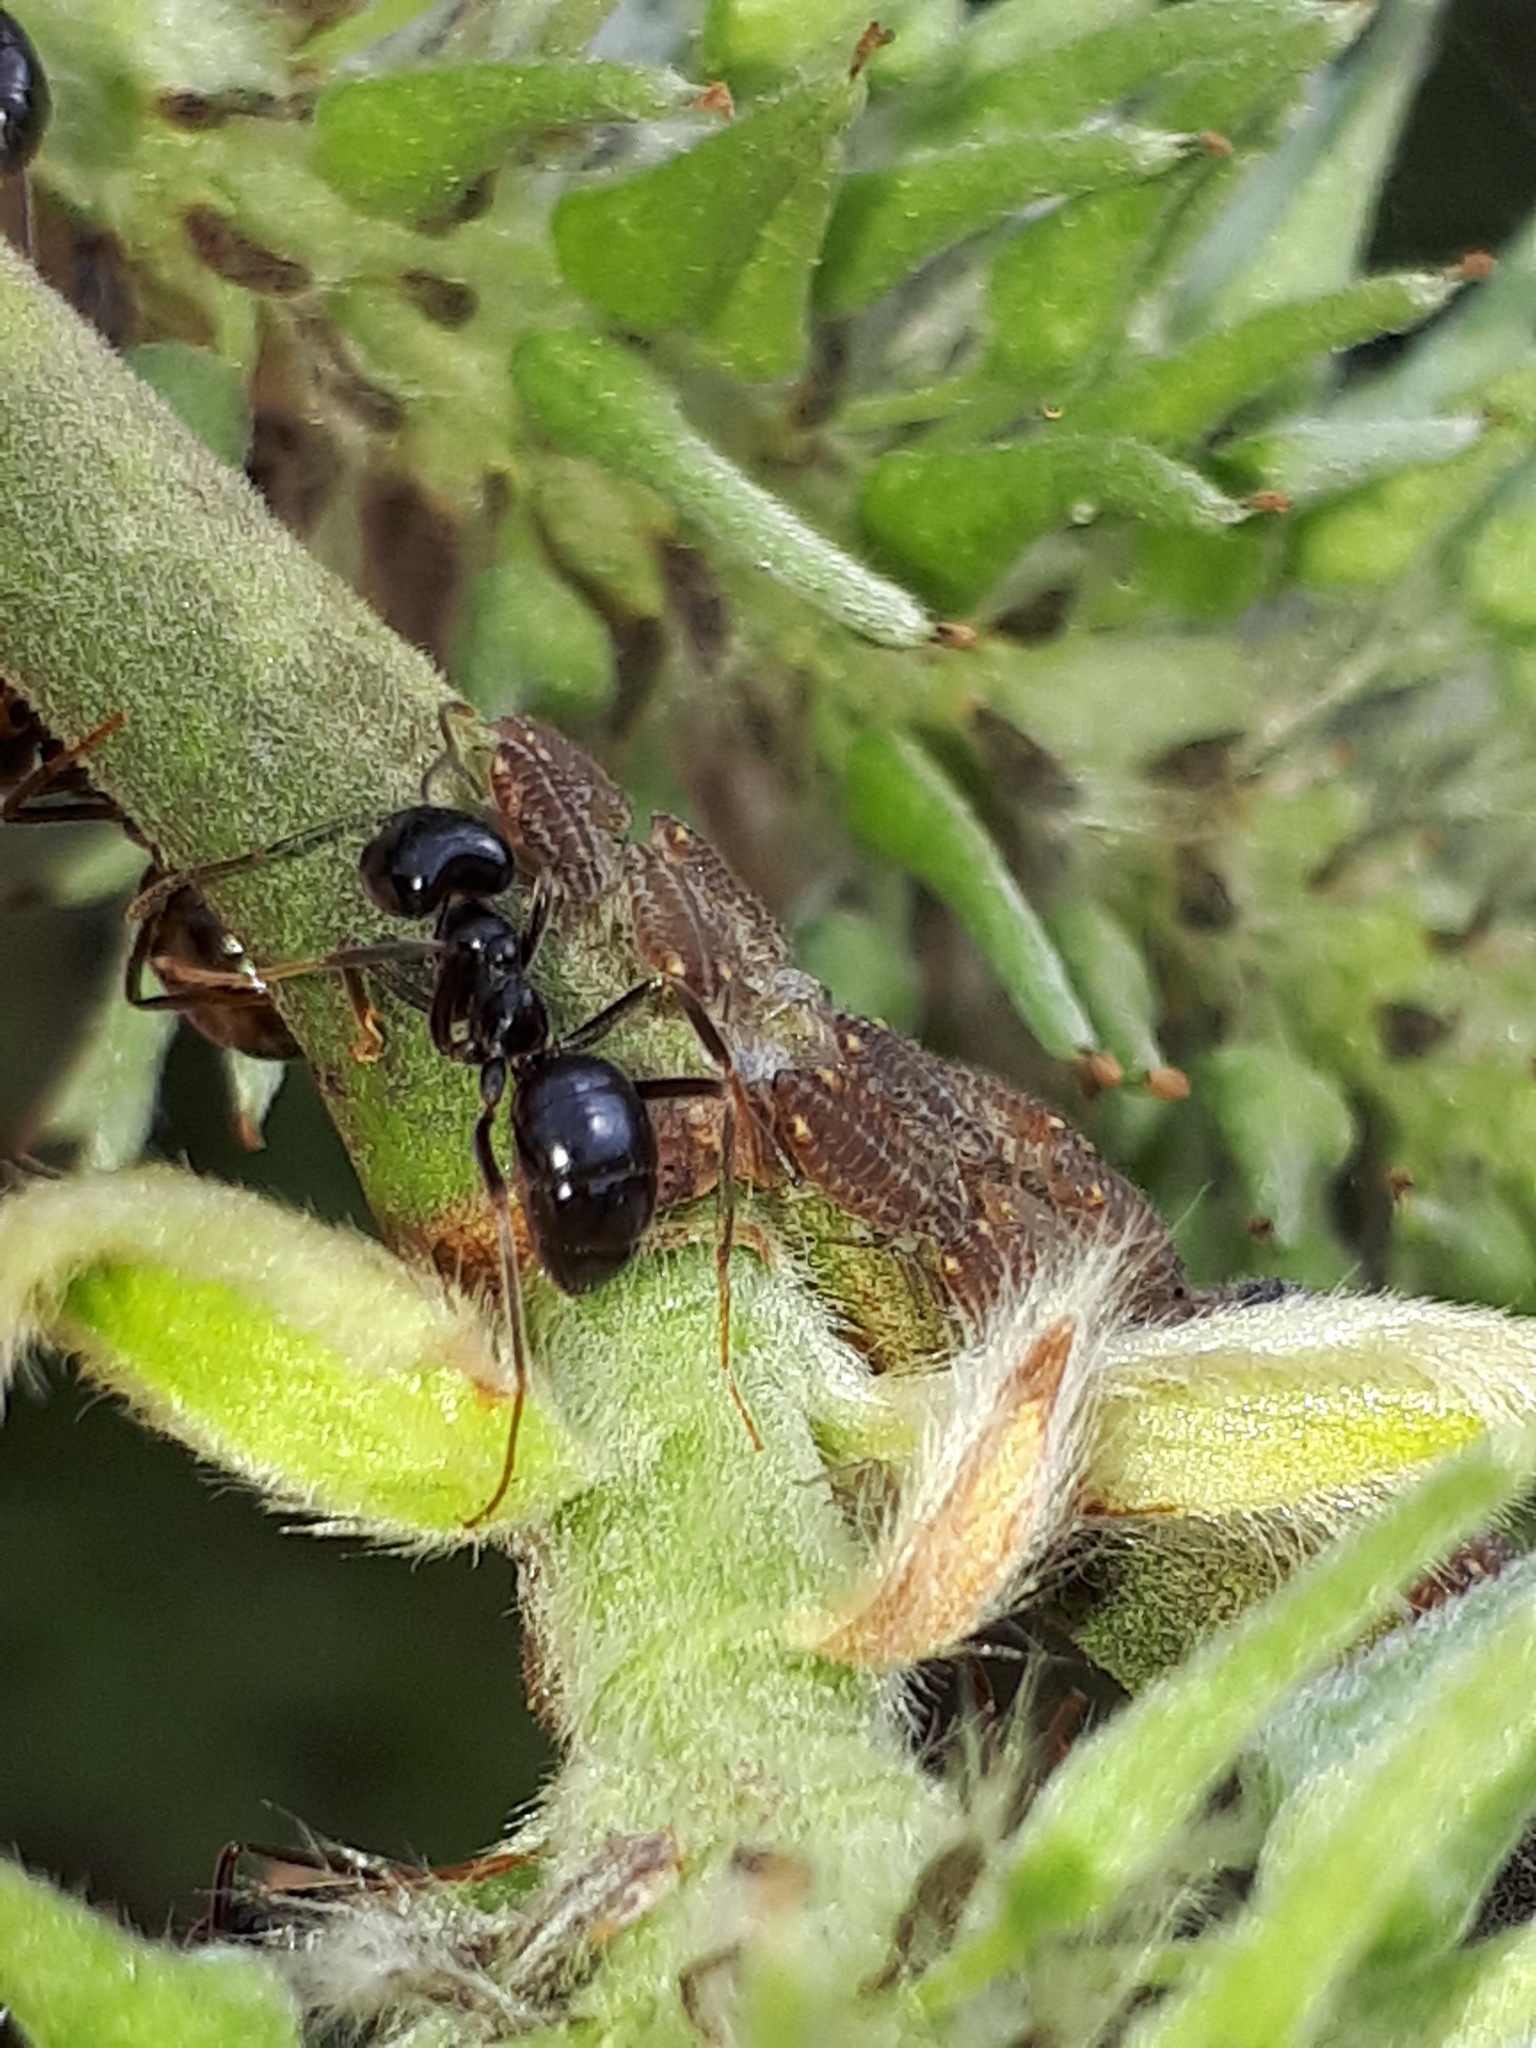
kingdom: Animalia
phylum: Arthropoda
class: Insecta
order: Hymenoptera
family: Formicidae
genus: Lasius
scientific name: Lasius fuliginosus
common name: Jet ant
